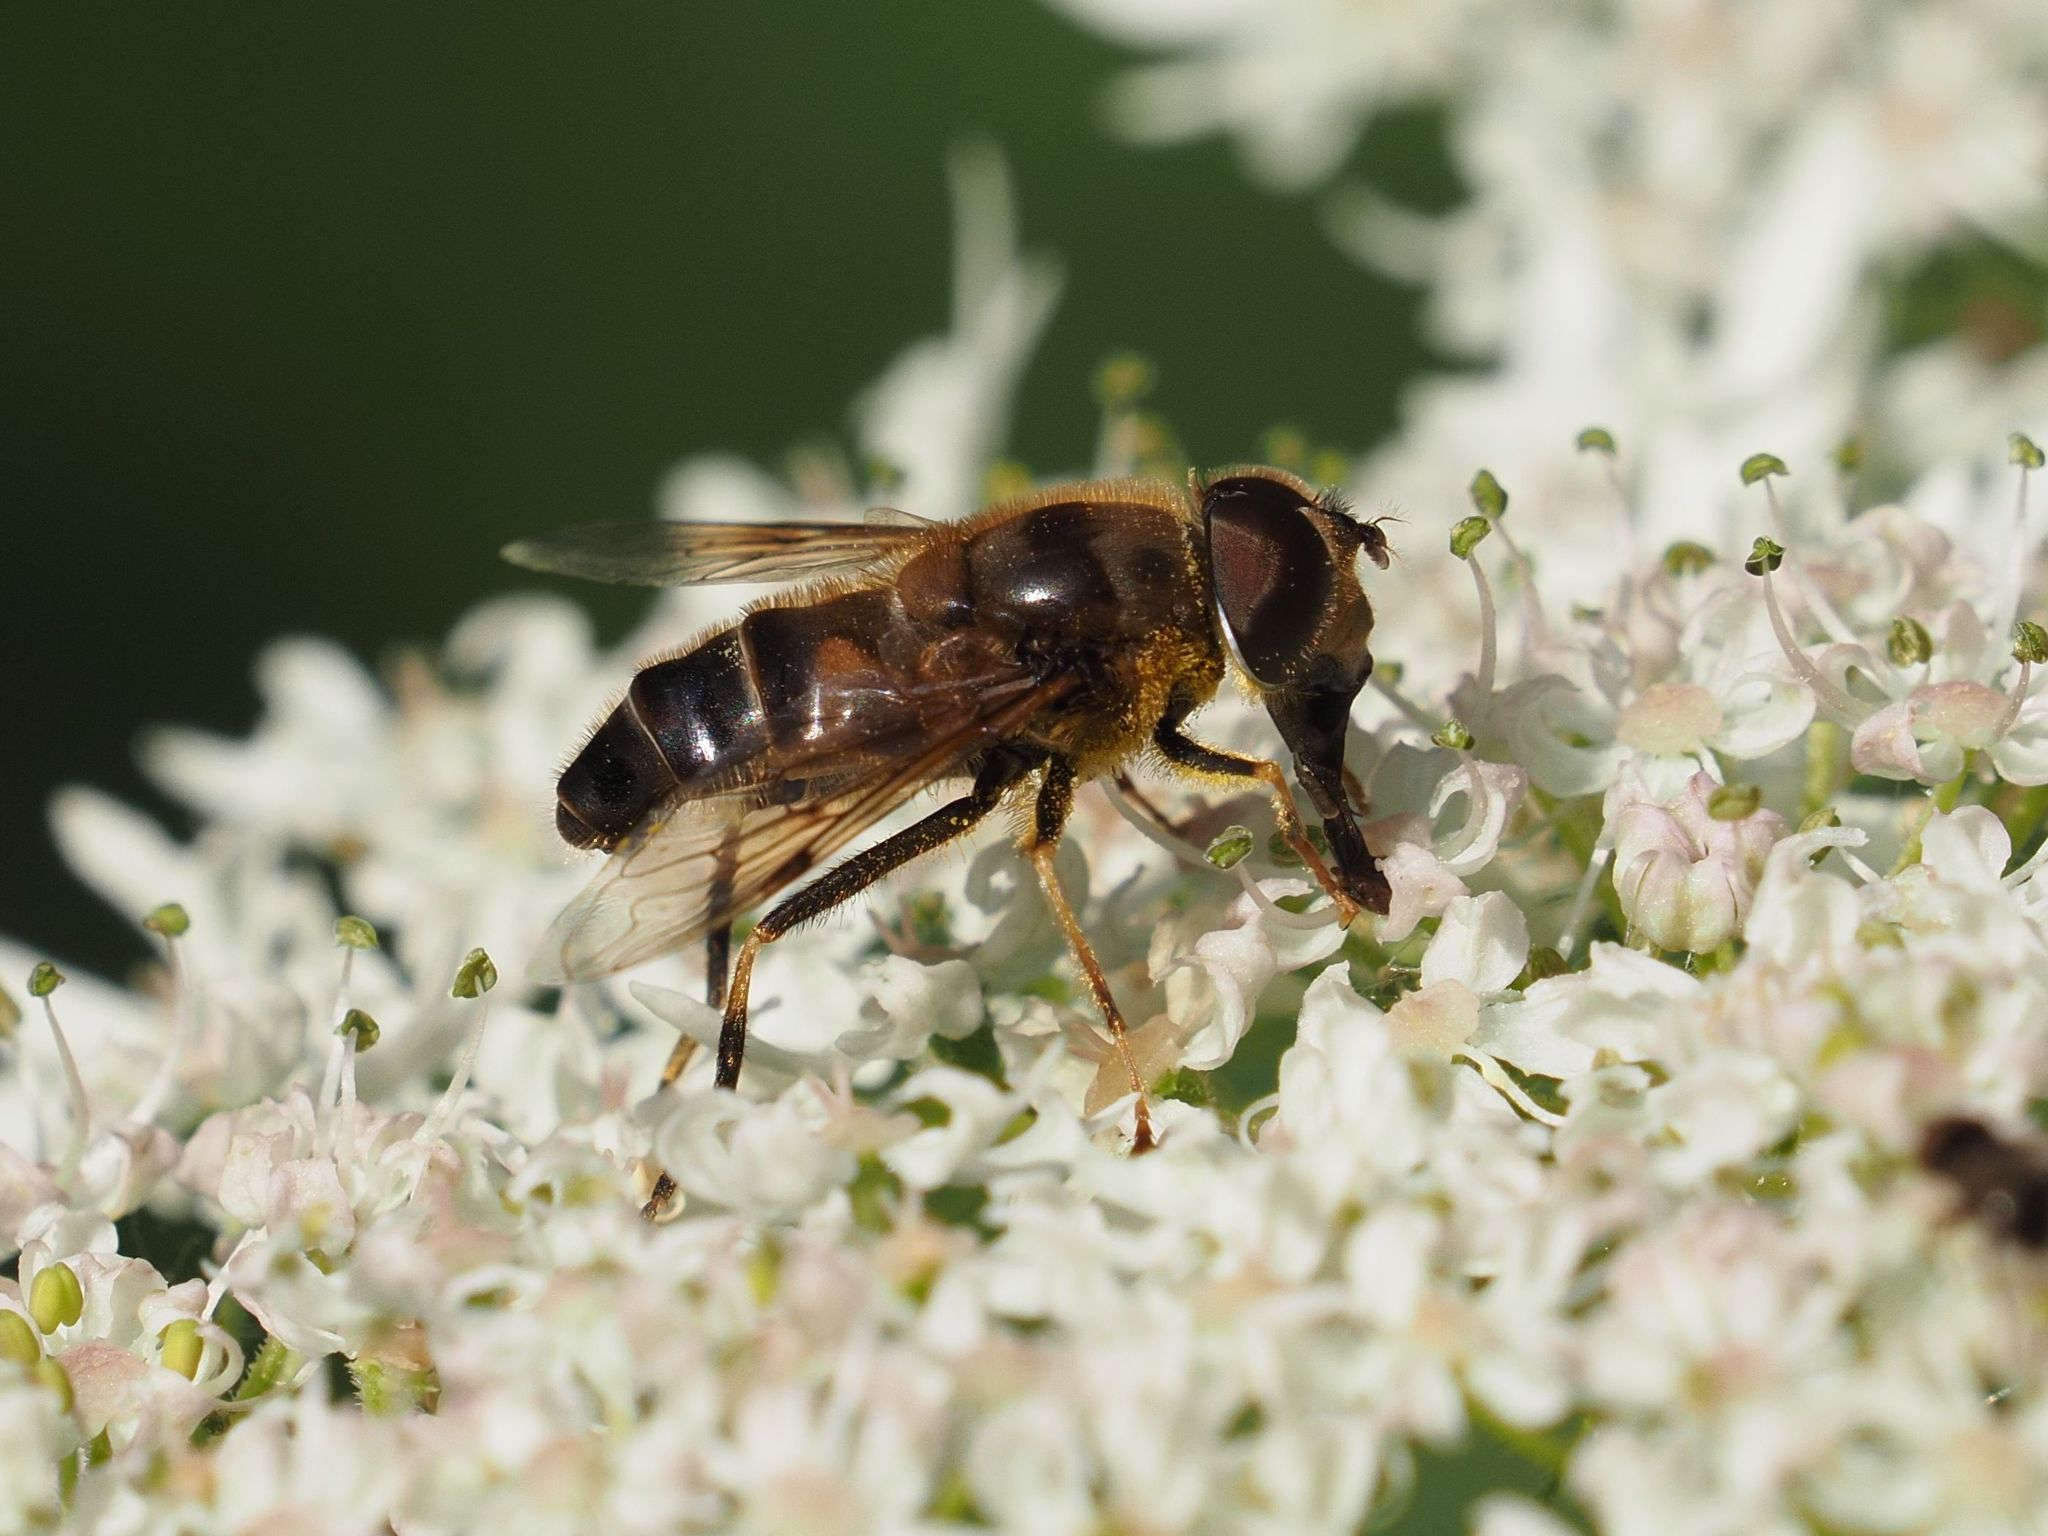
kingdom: Animalia
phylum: Arthropoda
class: Insecta
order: Diptera
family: Syrphidae
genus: Eristalis
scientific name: Eristalis pertinax
